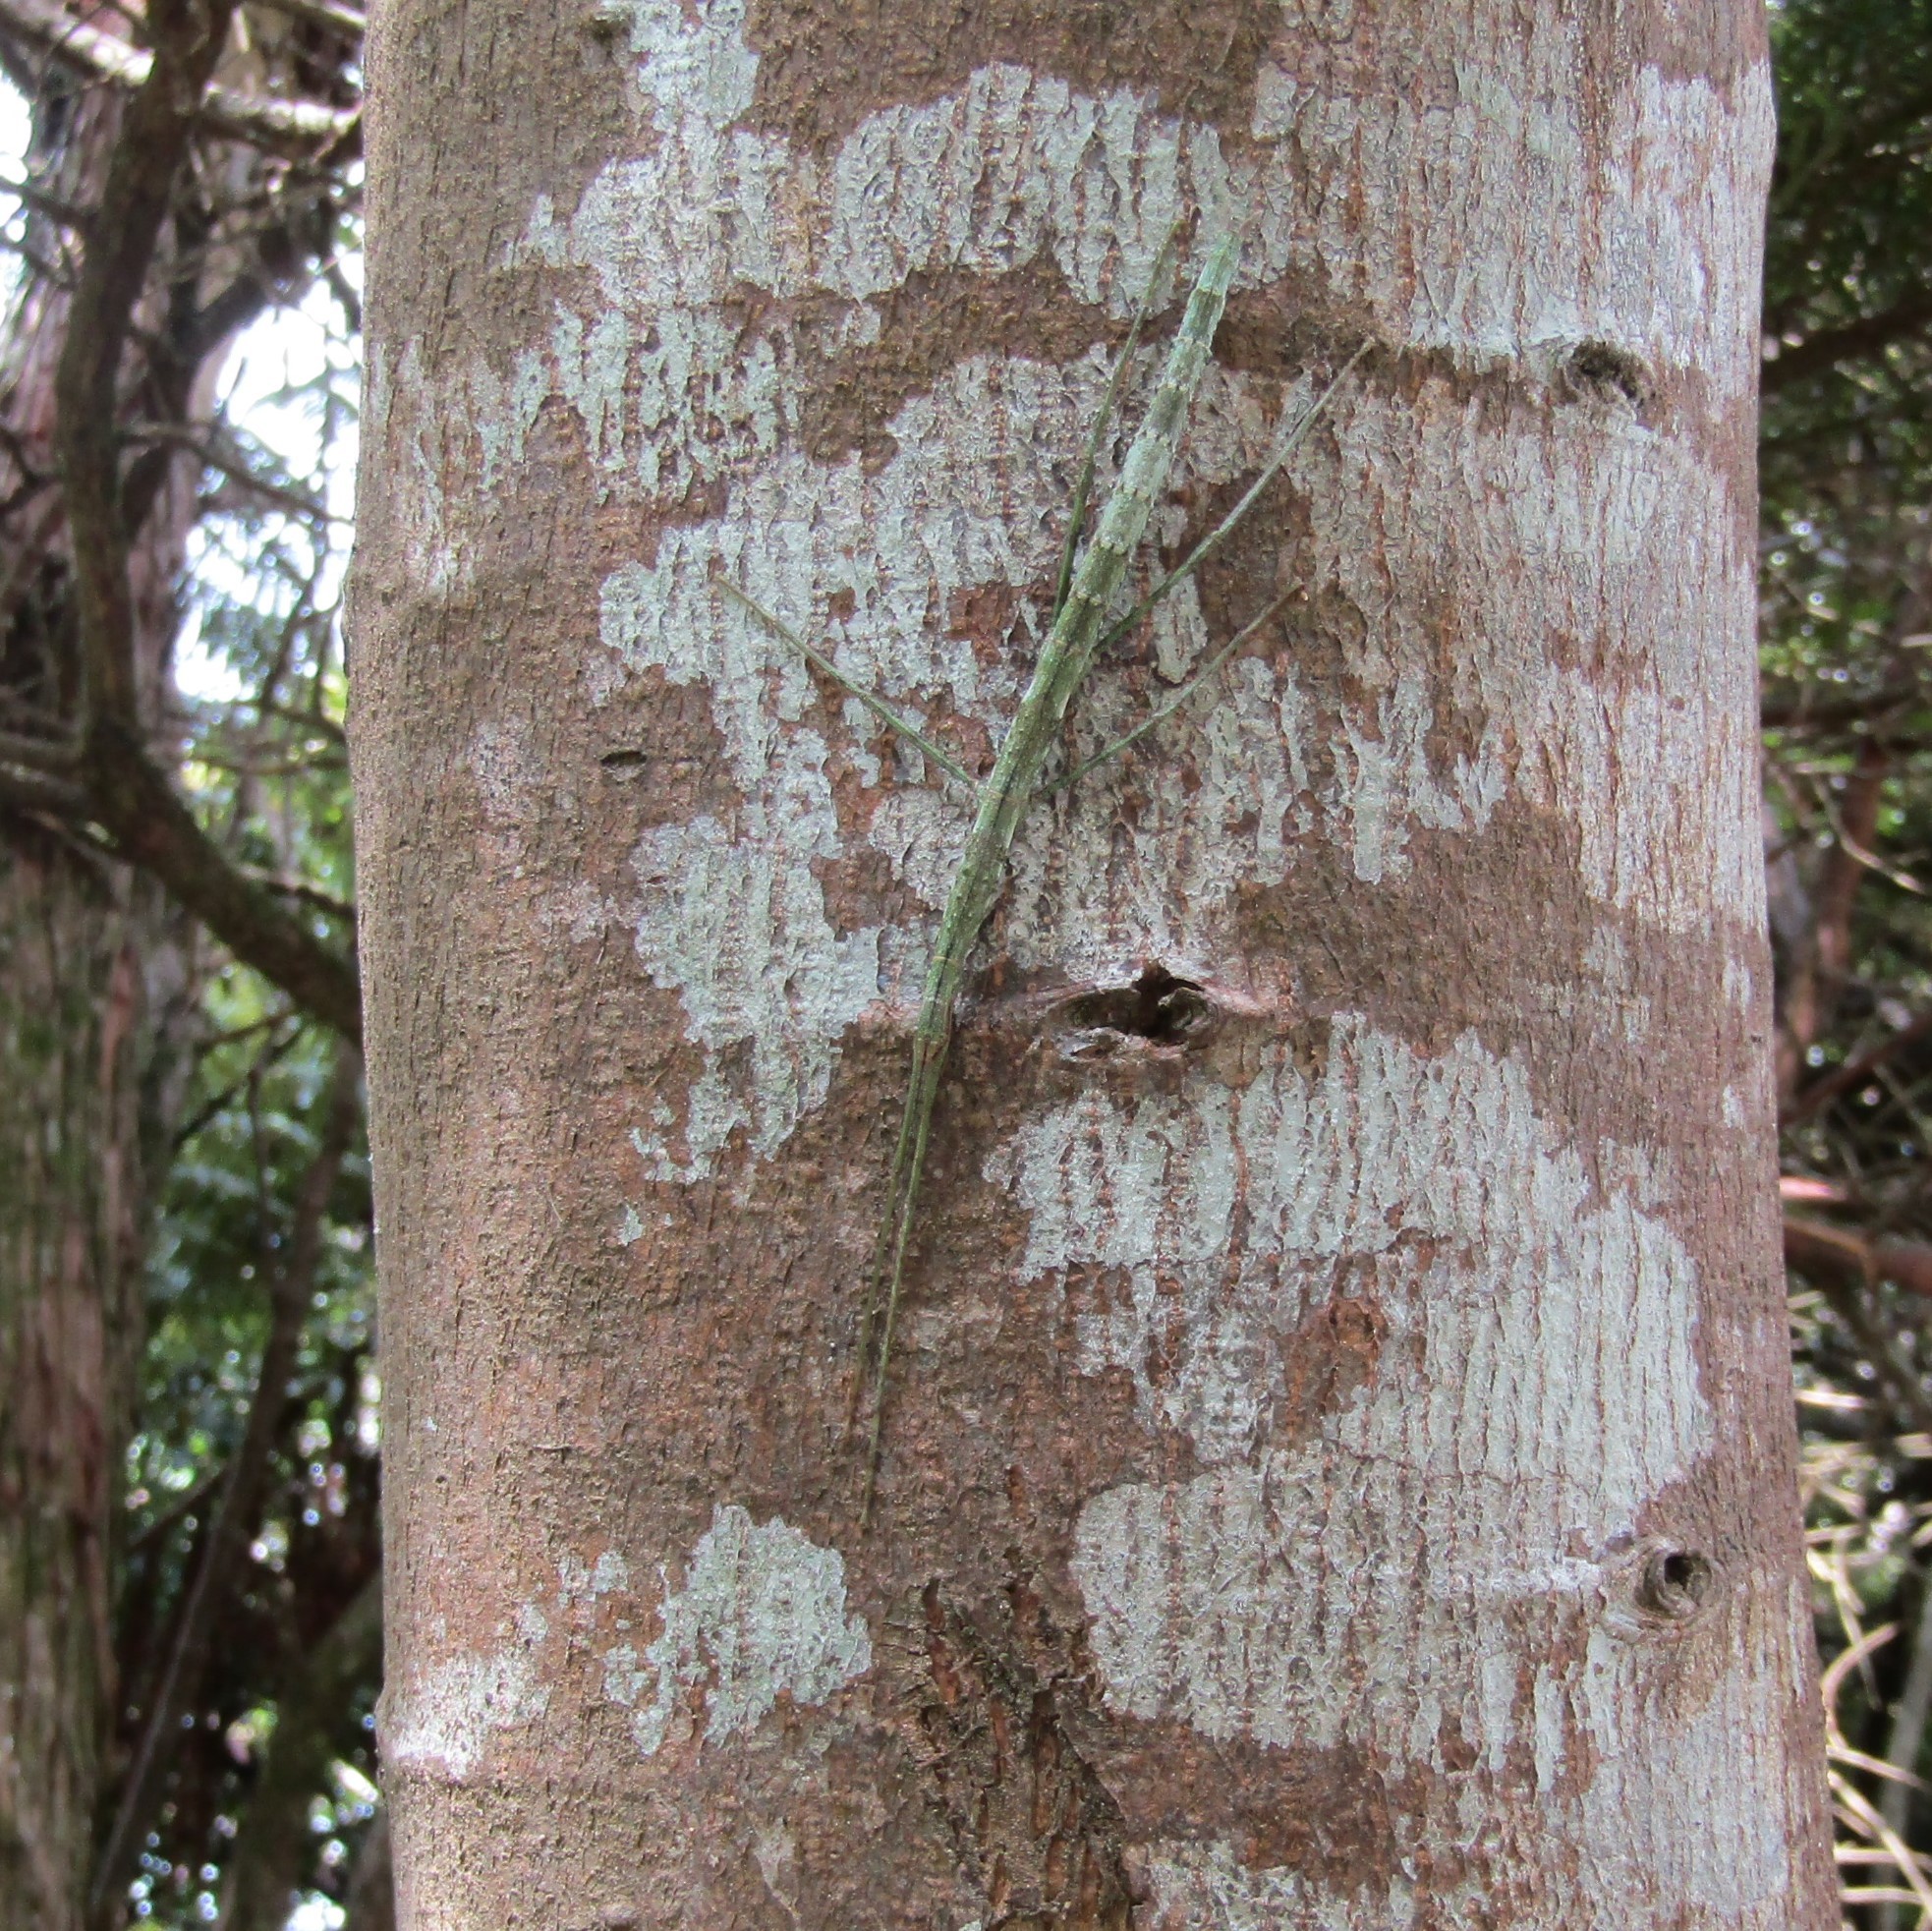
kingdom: Animalia
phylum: Arthropoda
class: Insecta
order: Phasmida
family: Phasmatidae
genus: Clitarchus
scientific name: Clitarchus hookeri
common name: Smooth stick insect
